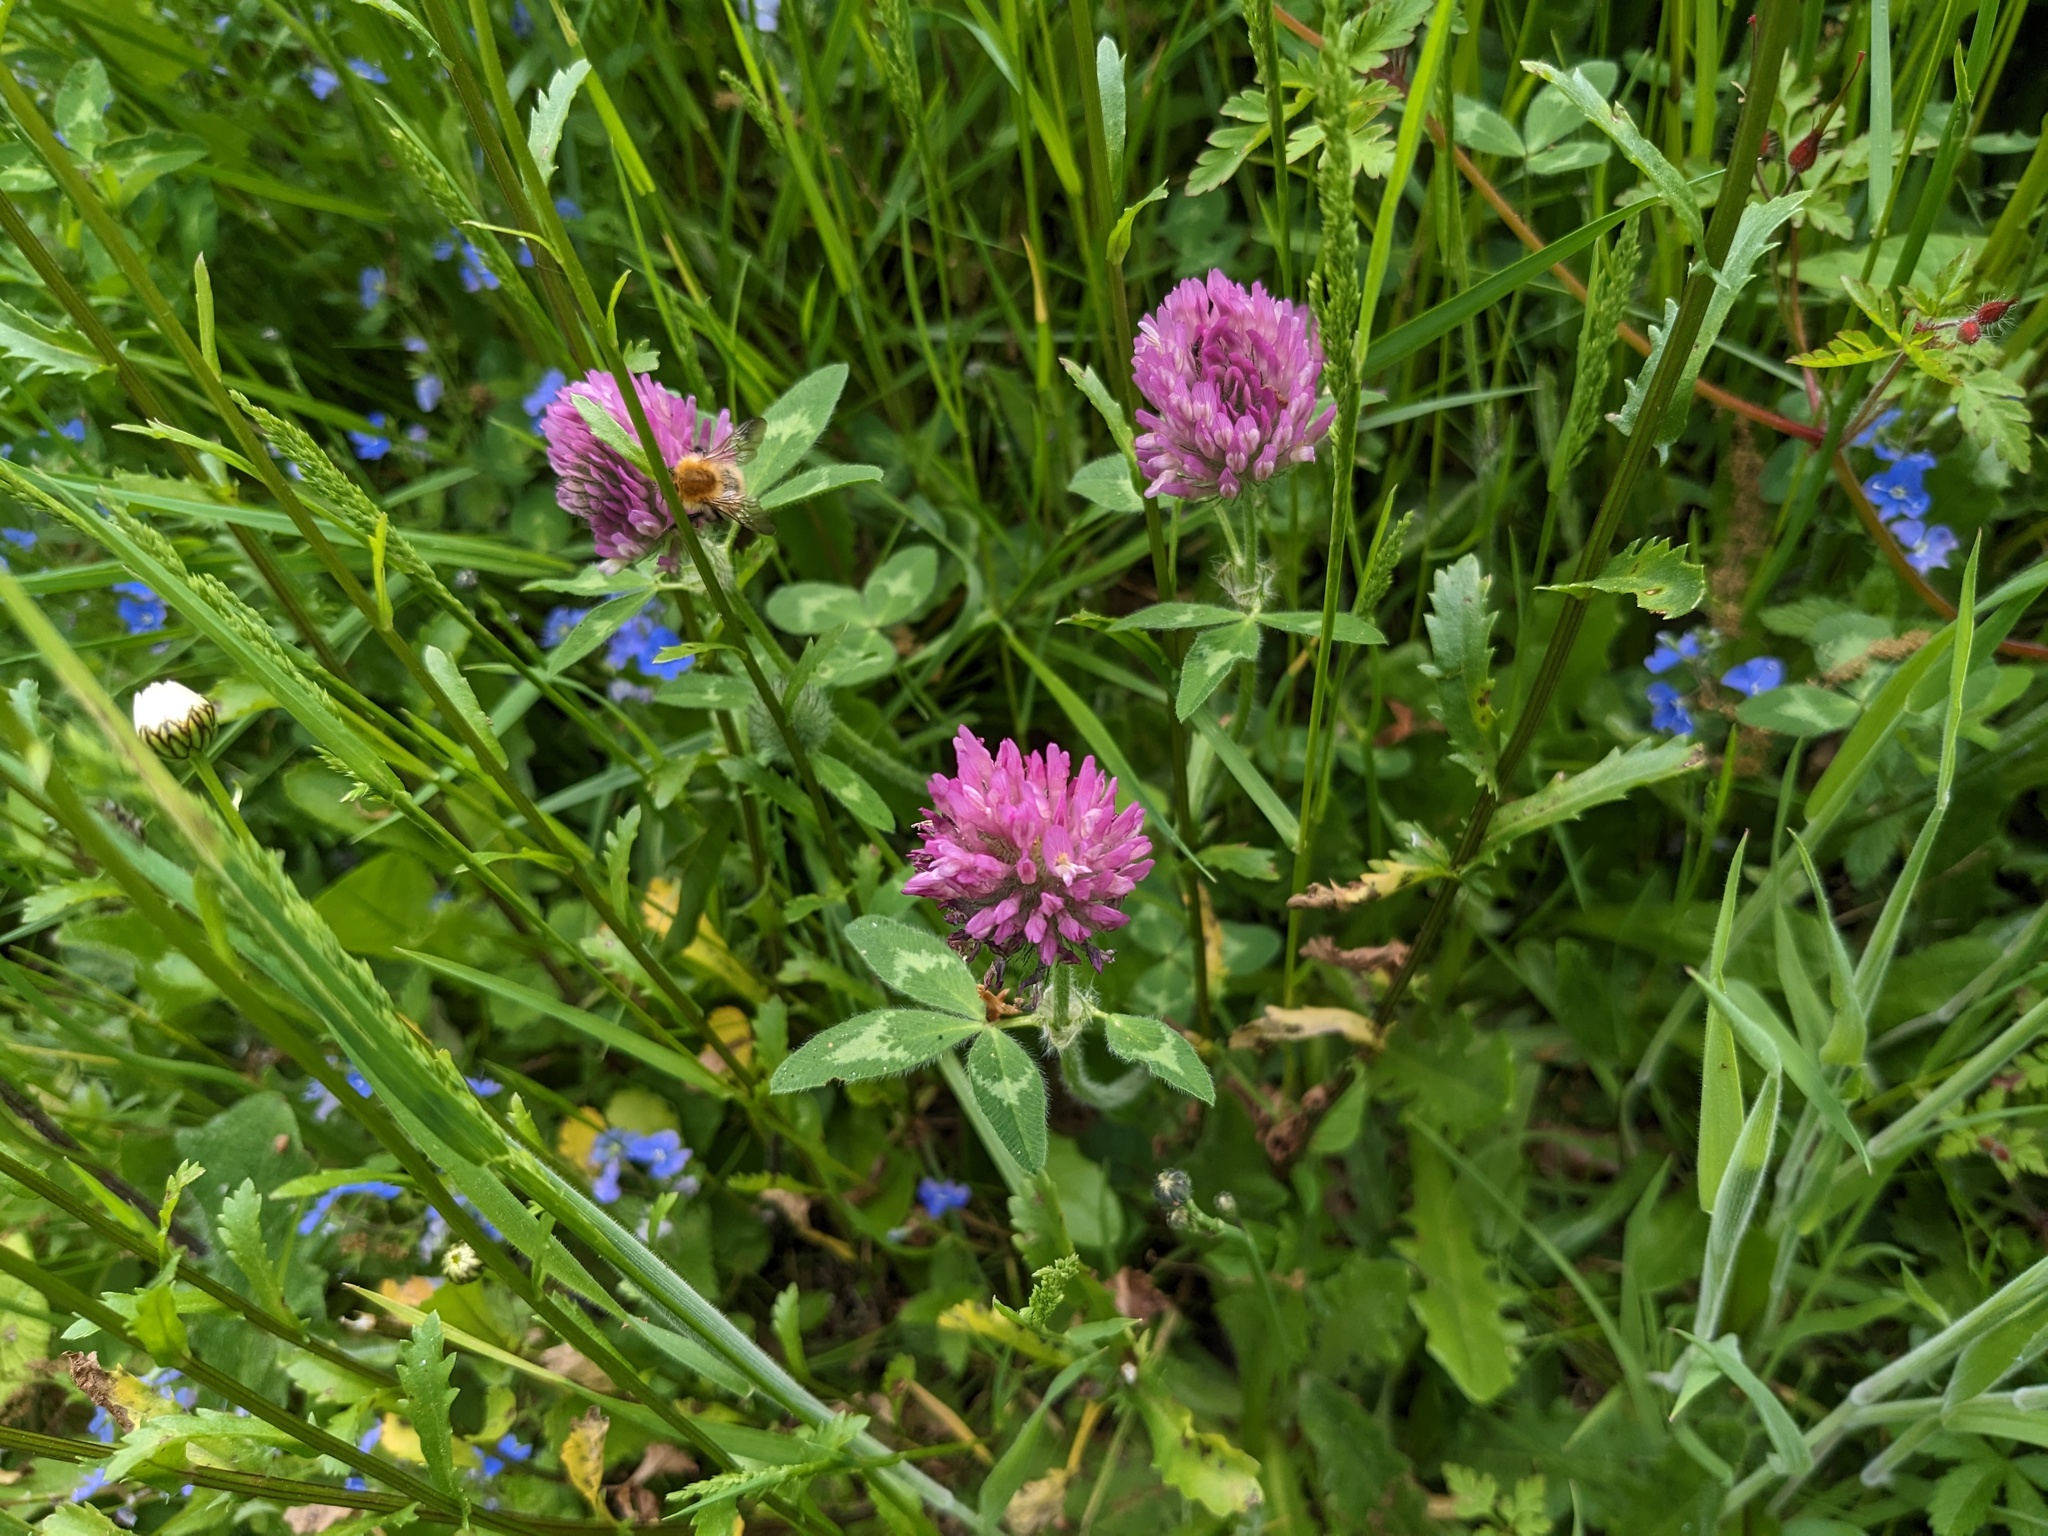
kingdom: Plantae
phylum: Tracheophyta
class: Magnoliopsida
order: Fabales
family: Fabaceae
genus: Trifolium
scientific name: Trifolium pratense
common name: Red clover
